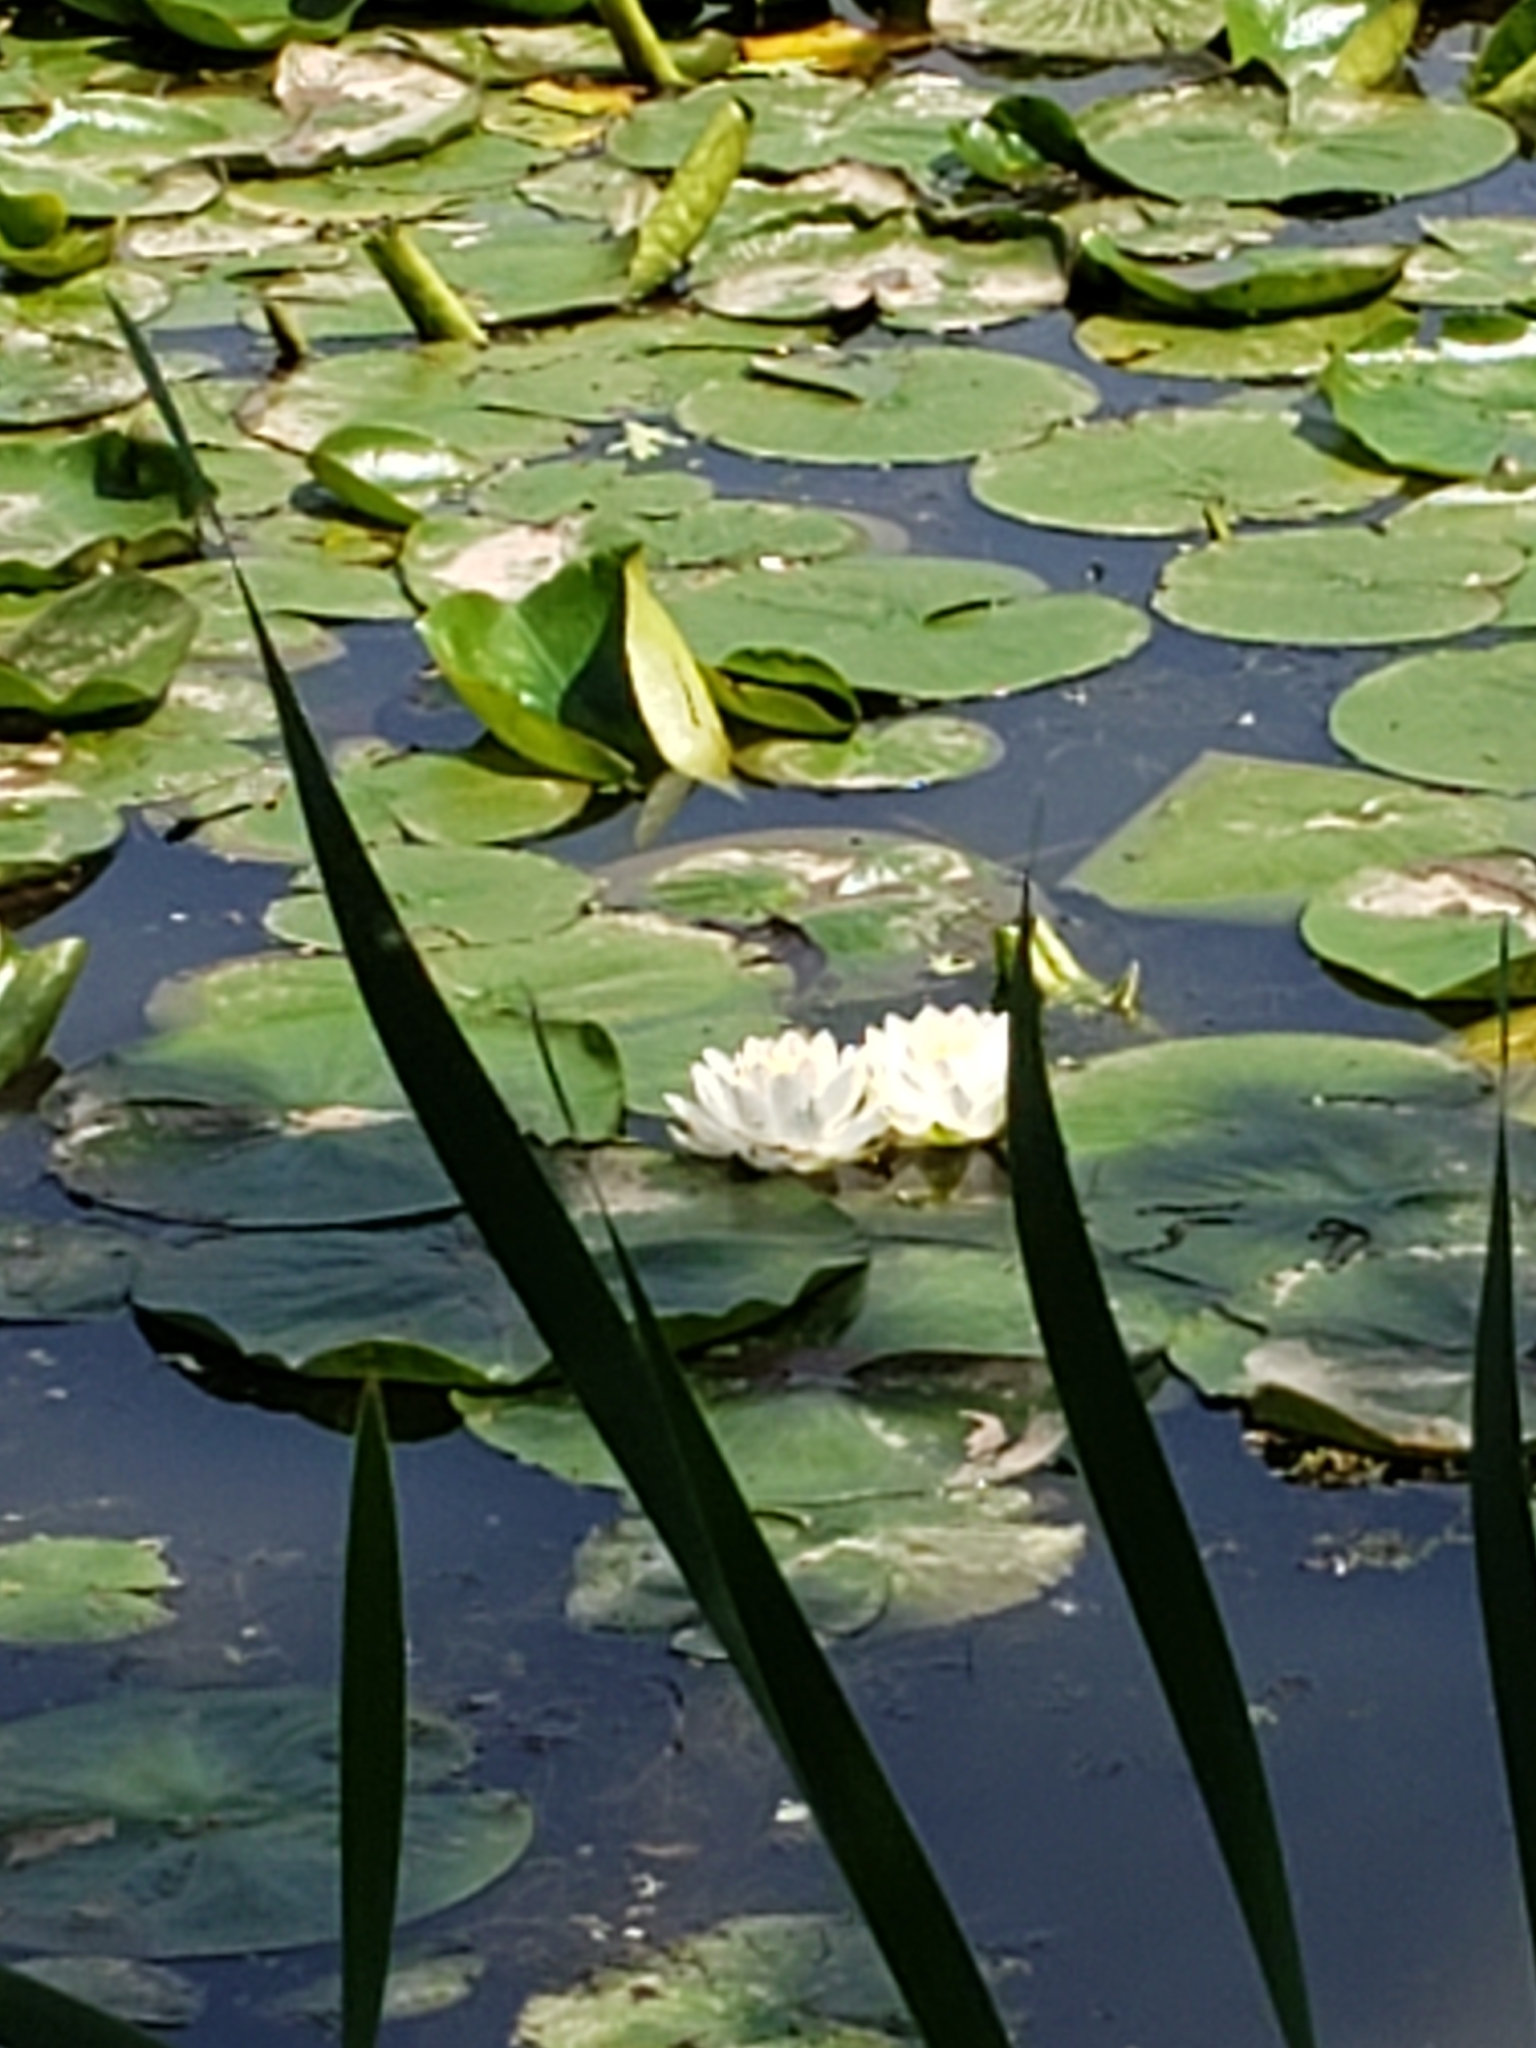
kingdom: Plantae
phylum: Tracheophyta
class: Magnoliopsida
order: Nymphaeales
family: Nymphaeaceae
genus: Nymphaea
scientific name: Nymphaea odorata
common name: Fragrant water-lily
